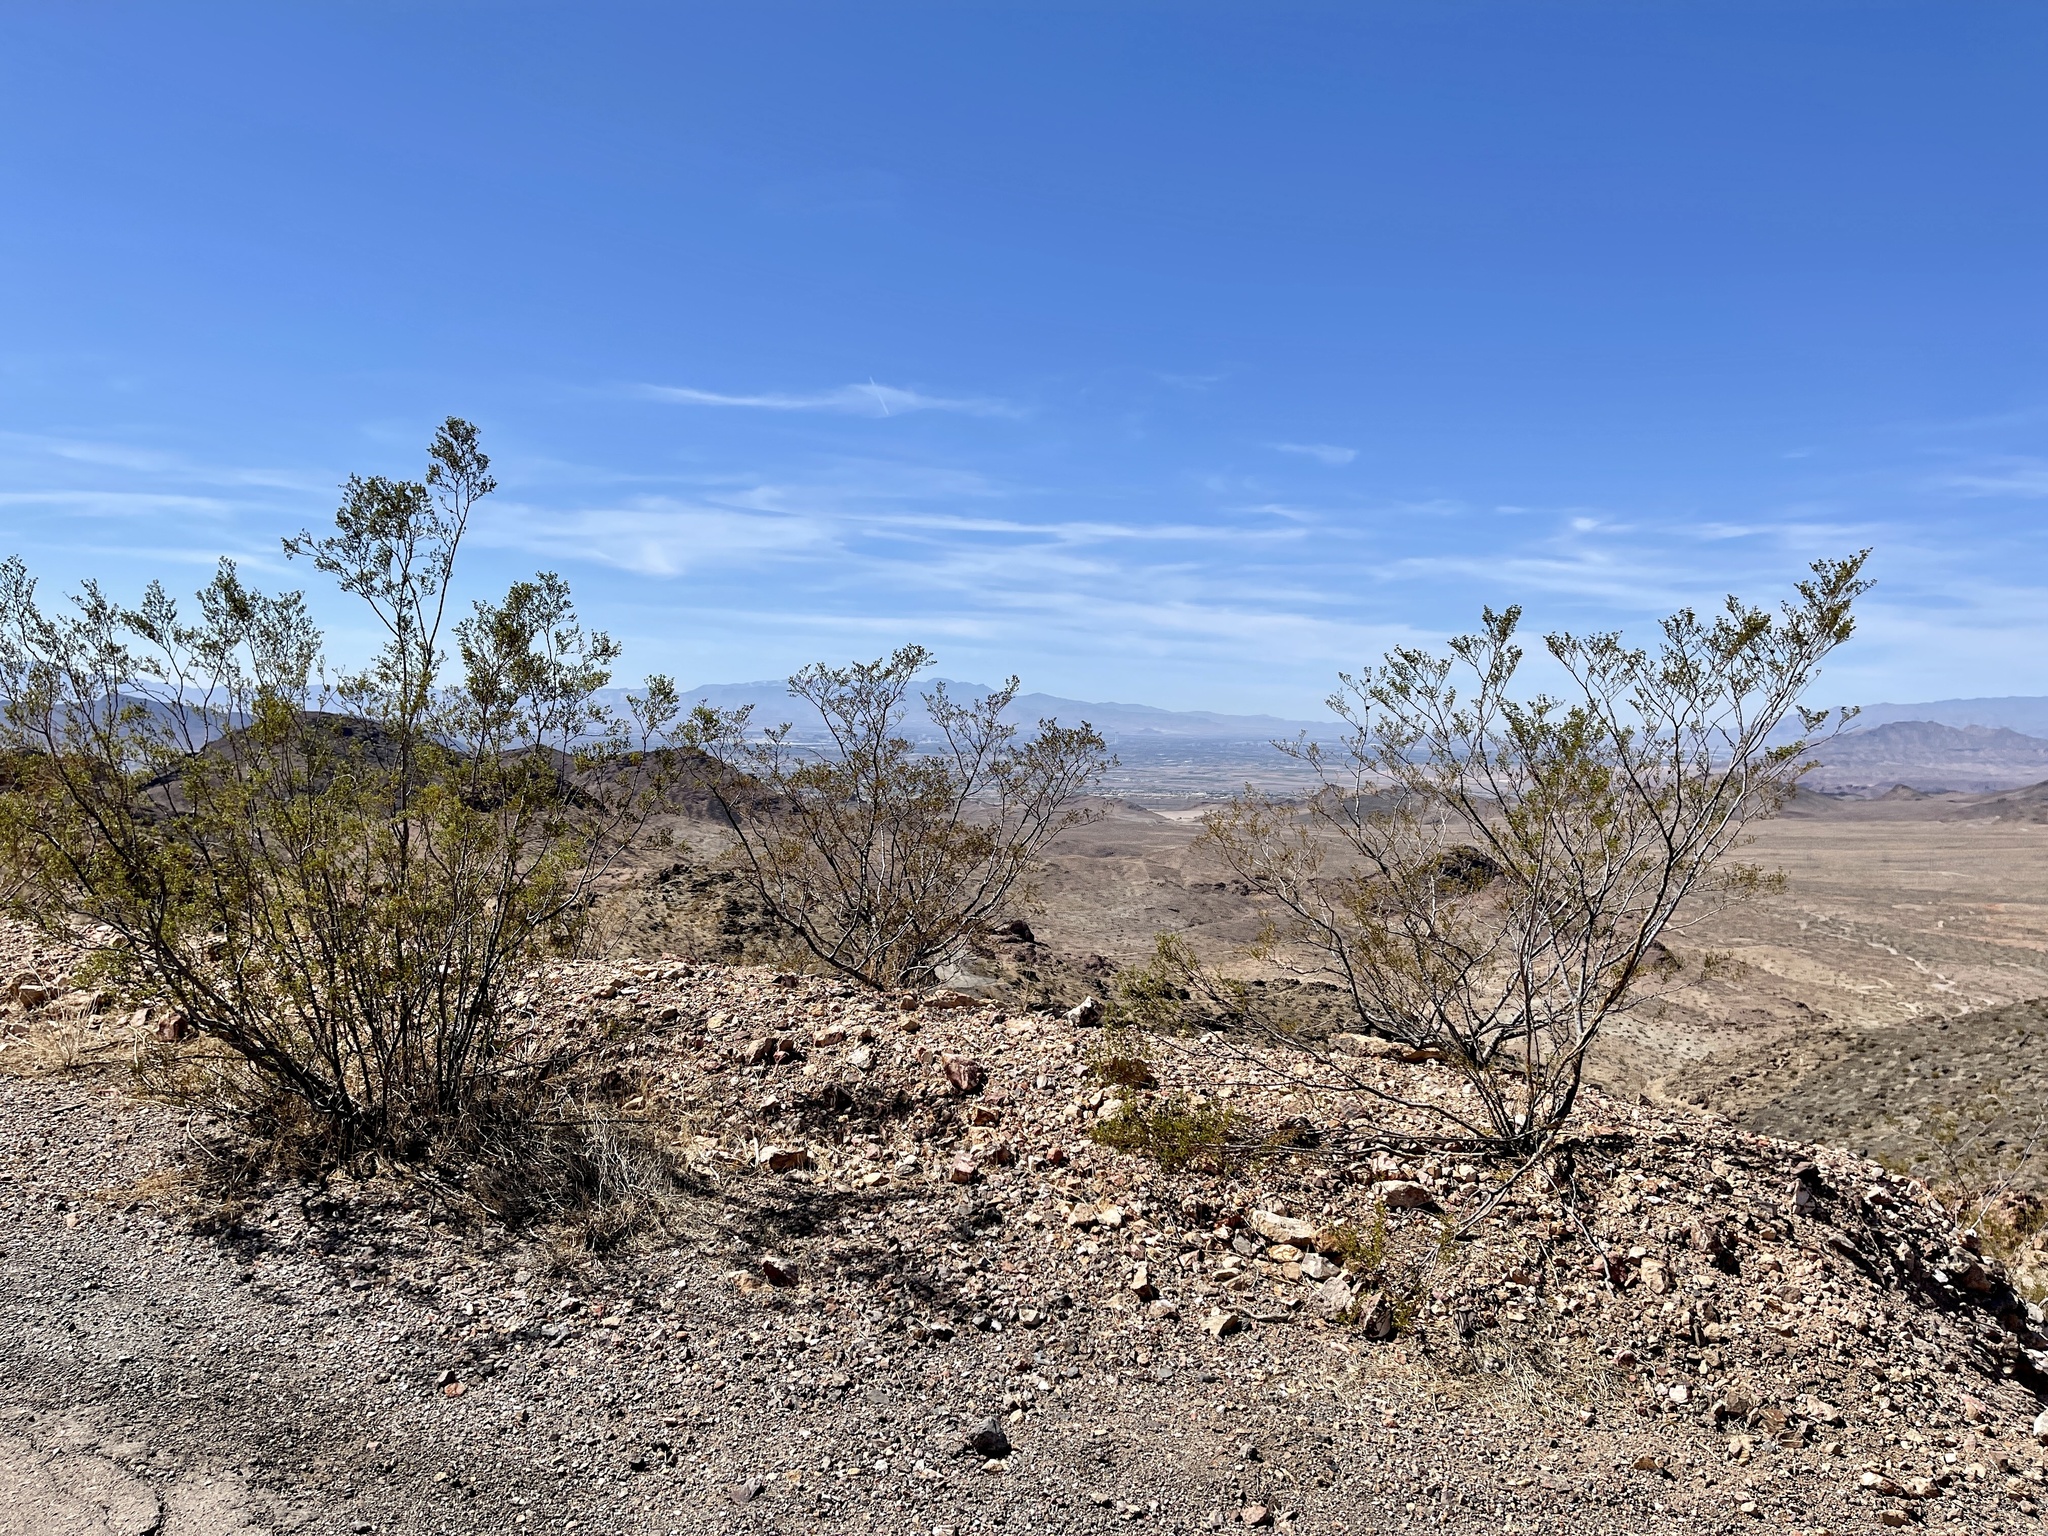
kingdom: Plantae
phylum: Tracheophyta
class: Magnoliopsida
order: Zygophyllales
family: Zygophyllaceae
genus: Larrea
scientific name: Larrea tridentata
